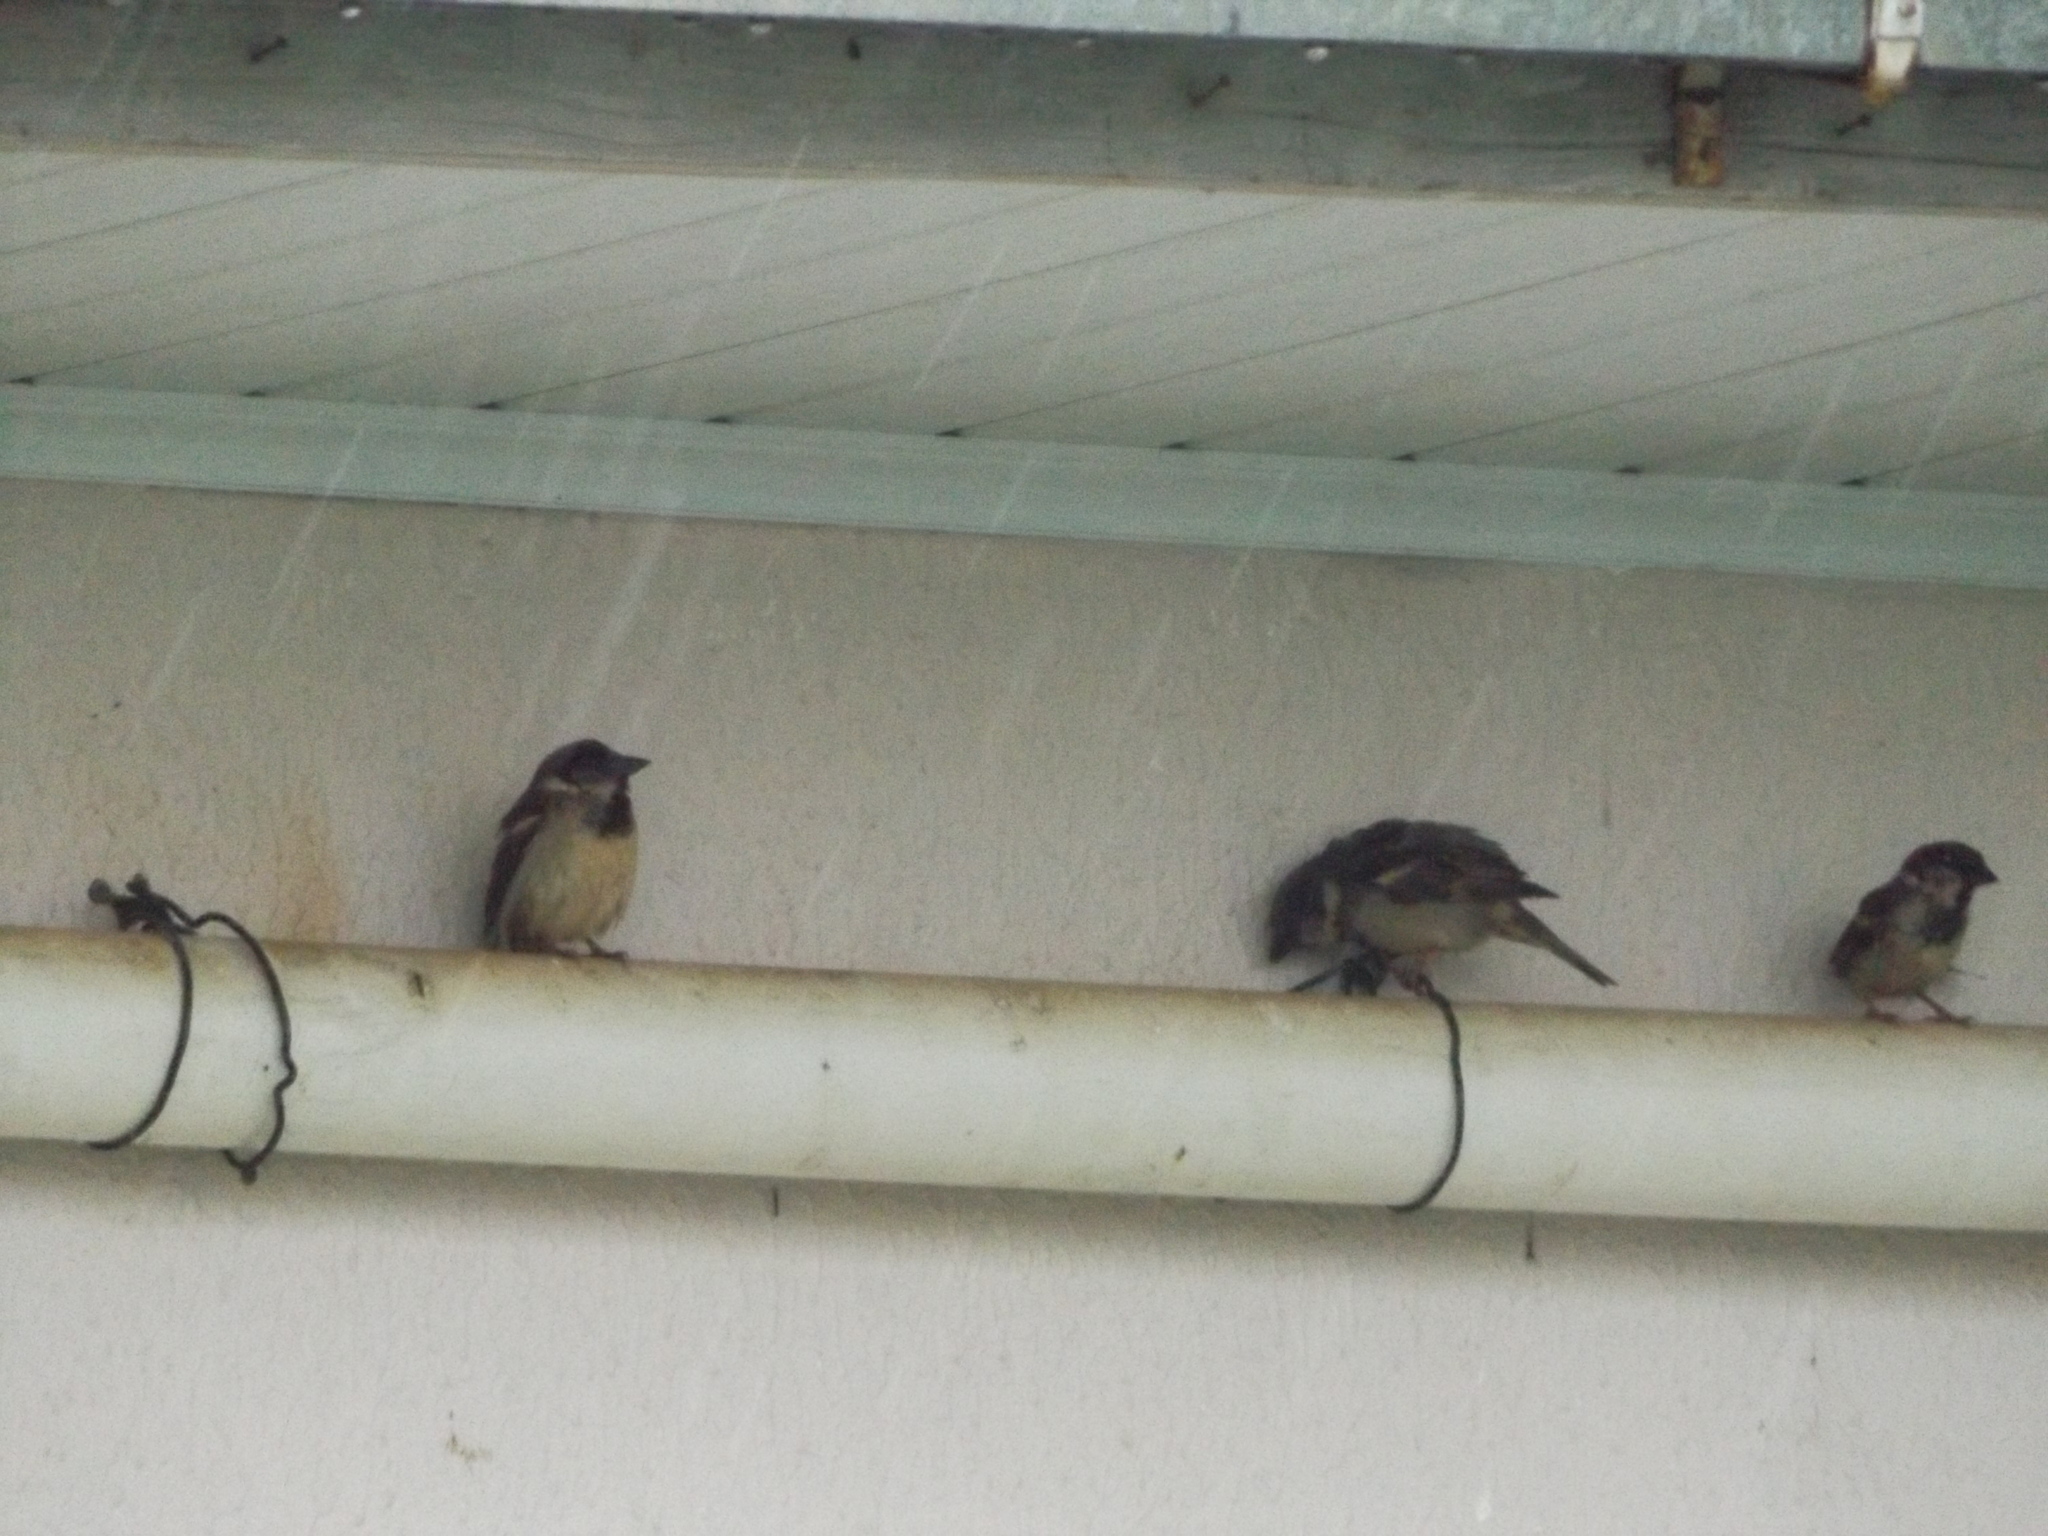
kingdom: Animalia
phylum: Chordata
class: Aves
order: Passeriformes
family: Passeridae
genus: Passer
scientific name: Passer domesticus
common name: House sparrow
